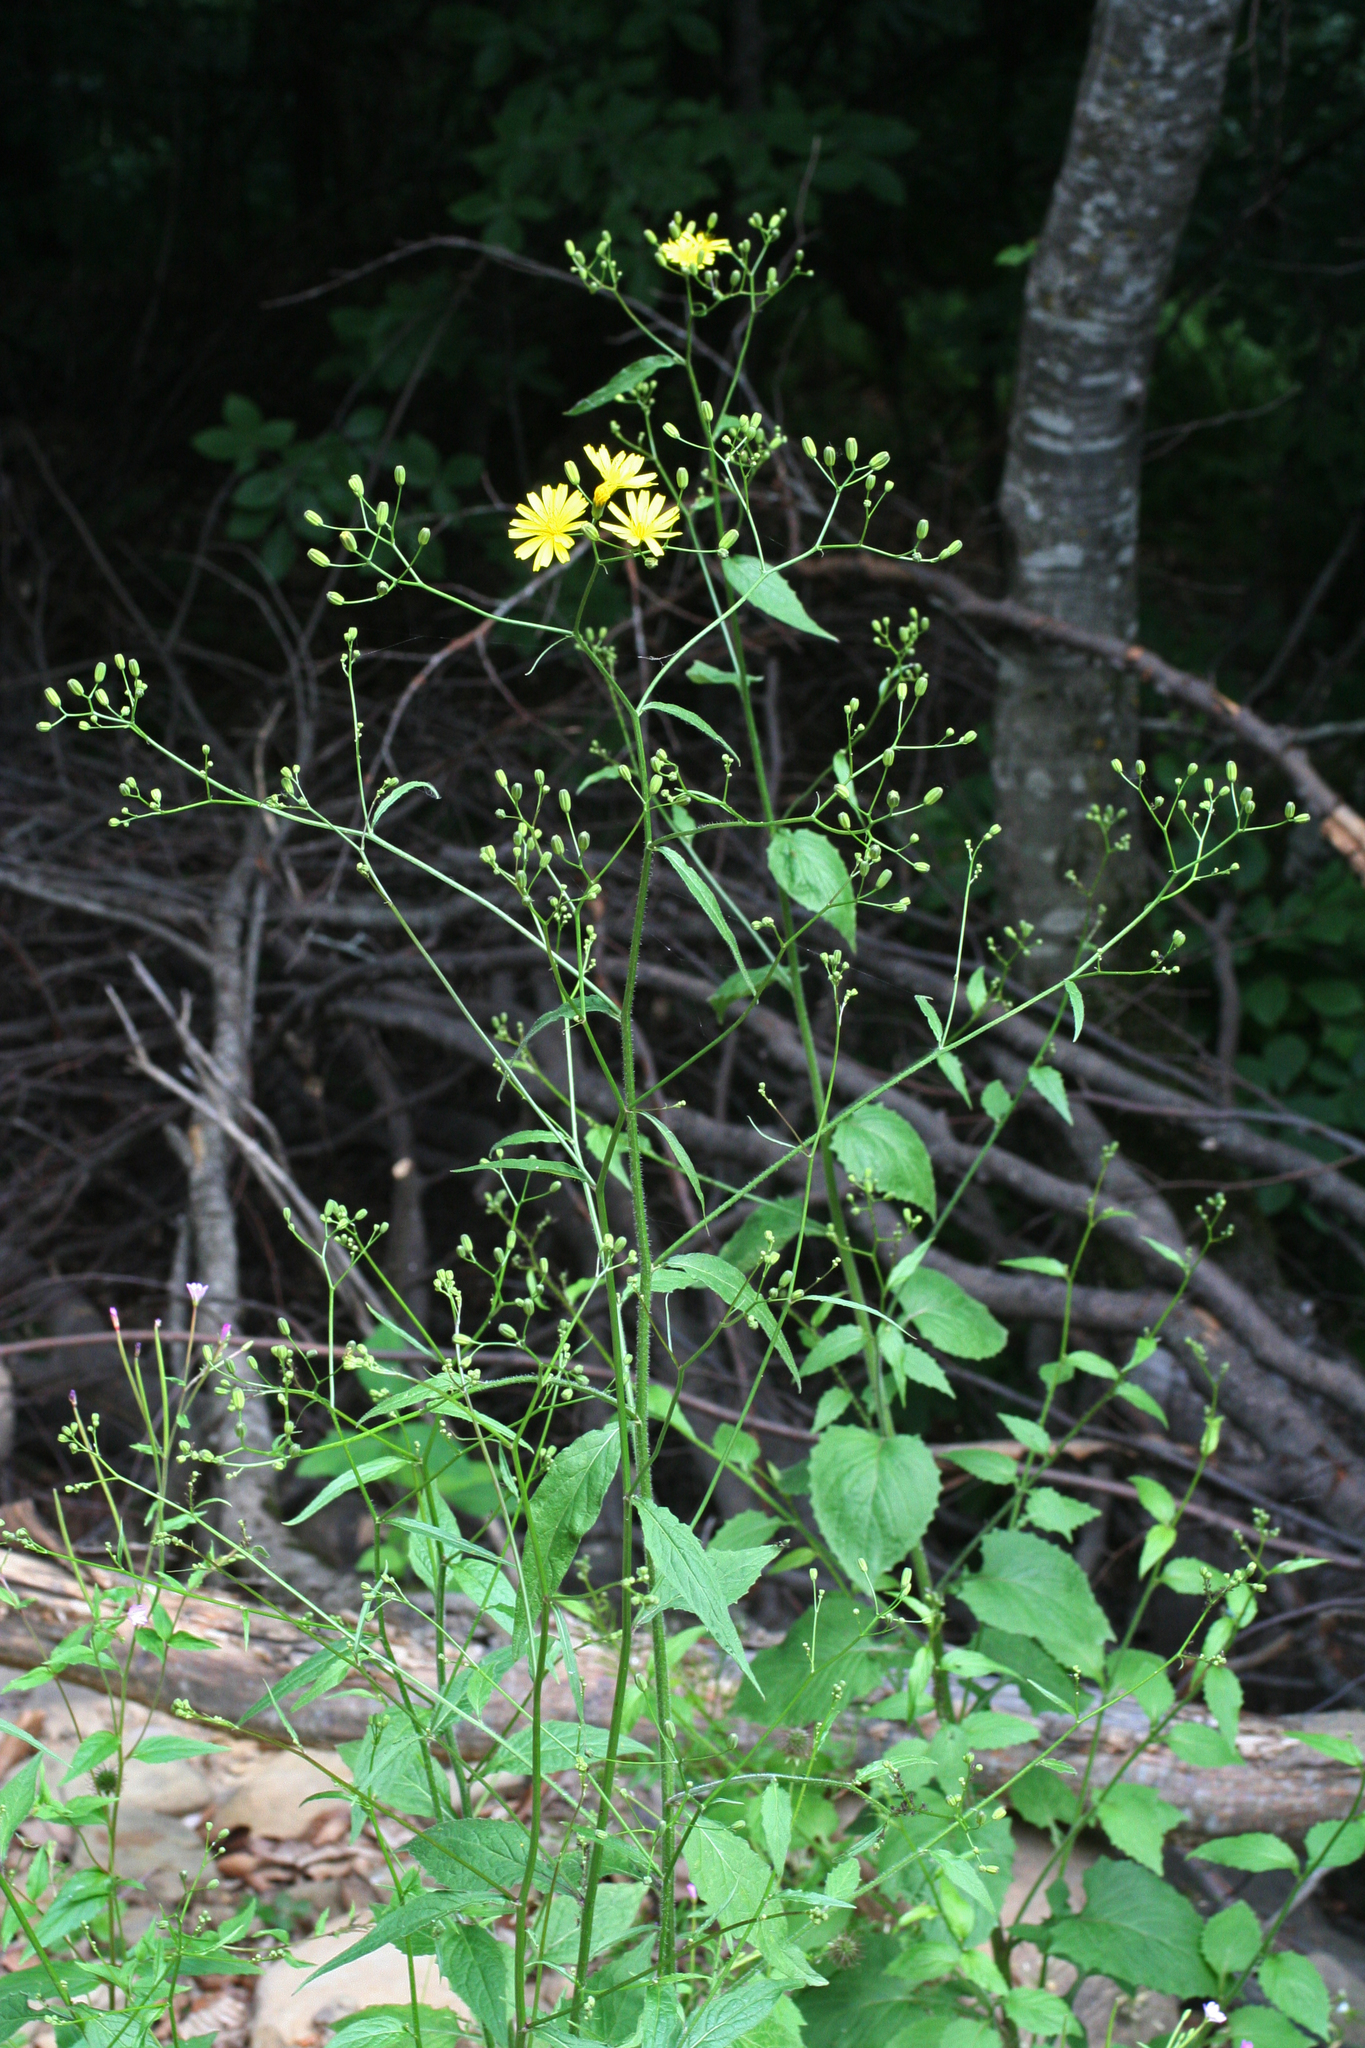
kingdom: Plantae
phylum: Tracheophyta
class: Magnoliopsida
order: Asterales
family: Asteraceae
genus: Lapsana
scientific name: Lapsana communis
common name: Nipplewort
